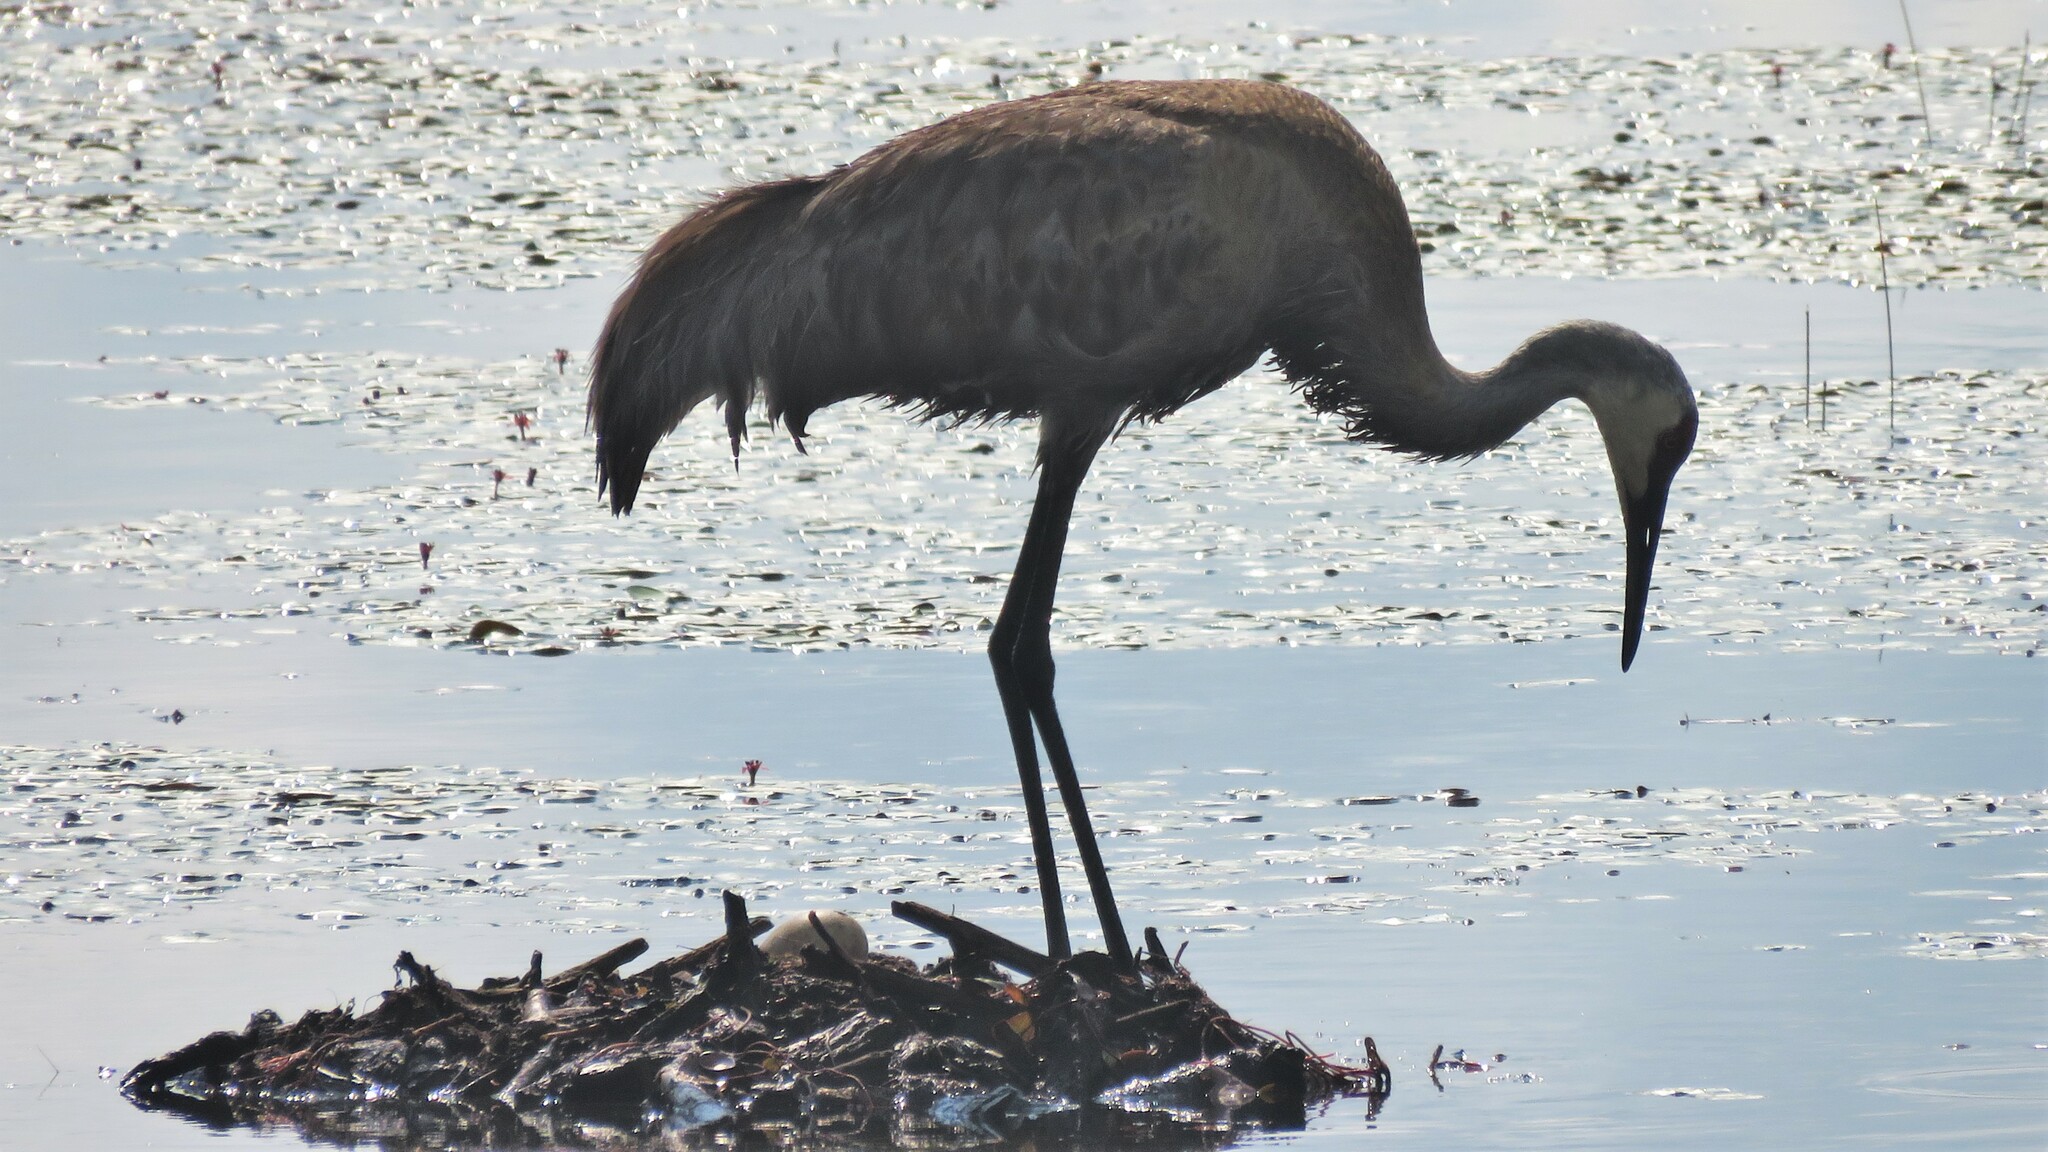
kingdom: Animalia
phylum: Chordata
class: Aves
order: Gruiformes
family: Gruidae
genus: Grus
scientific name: Grus canadensis
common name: Sandhill crane
